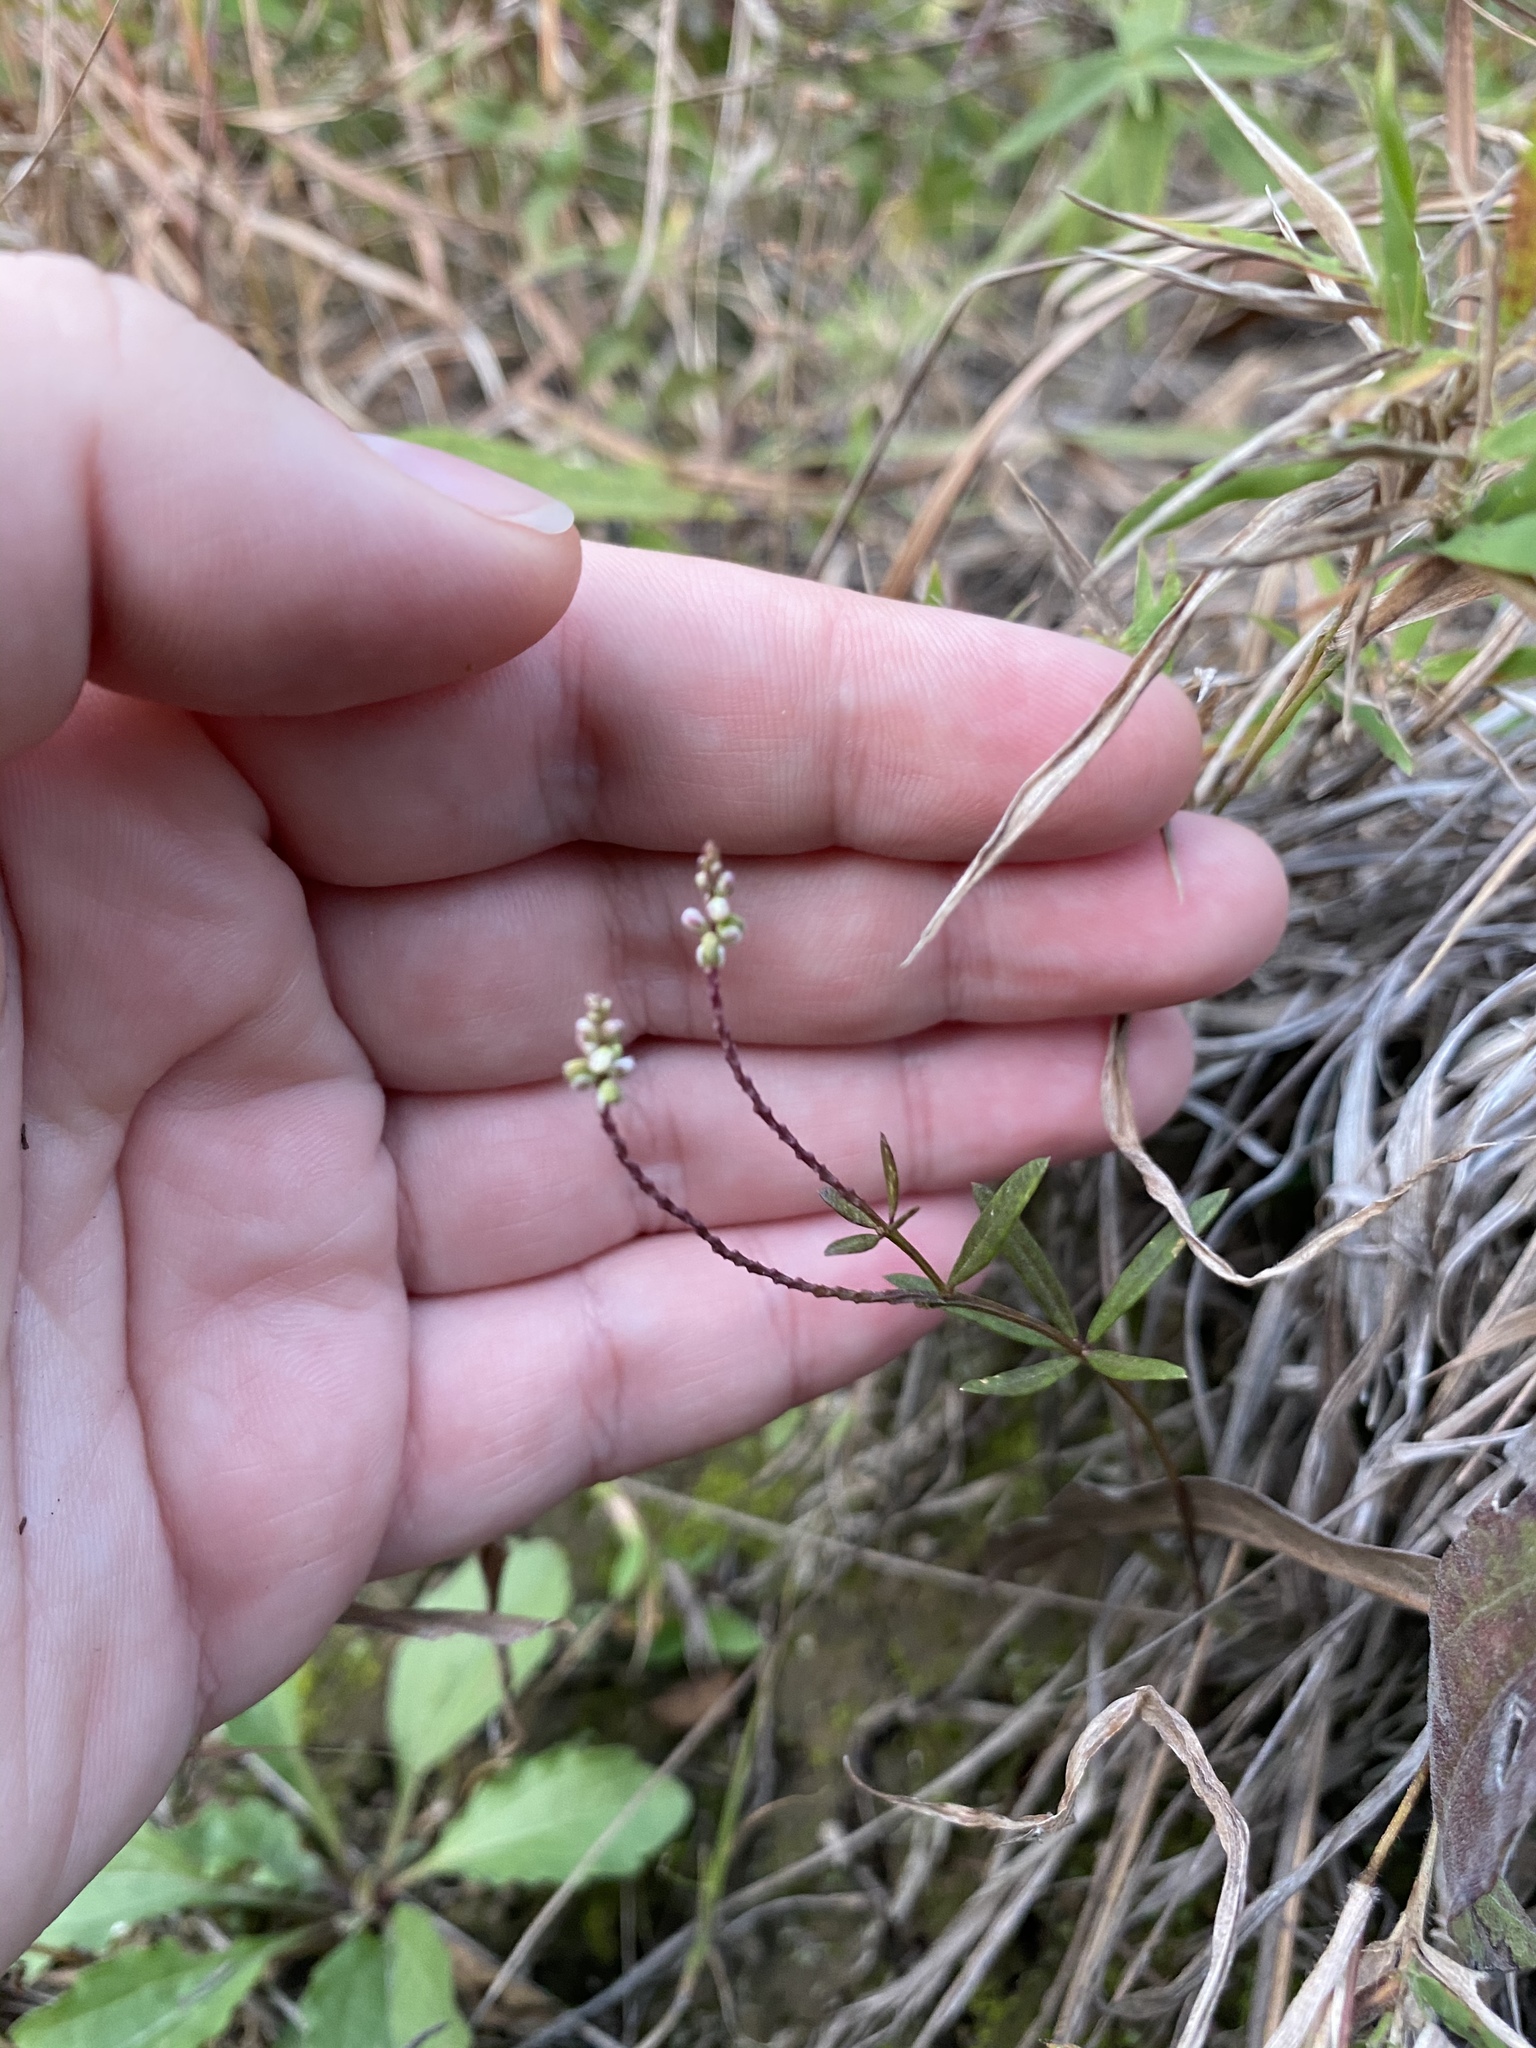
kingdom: Plantae
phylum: Tracheophyta
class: Magnoliopsida
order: Fabales
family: Polygalaceae
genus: Polygala
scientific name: Polygala verticillata
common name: Whorl milkwort
